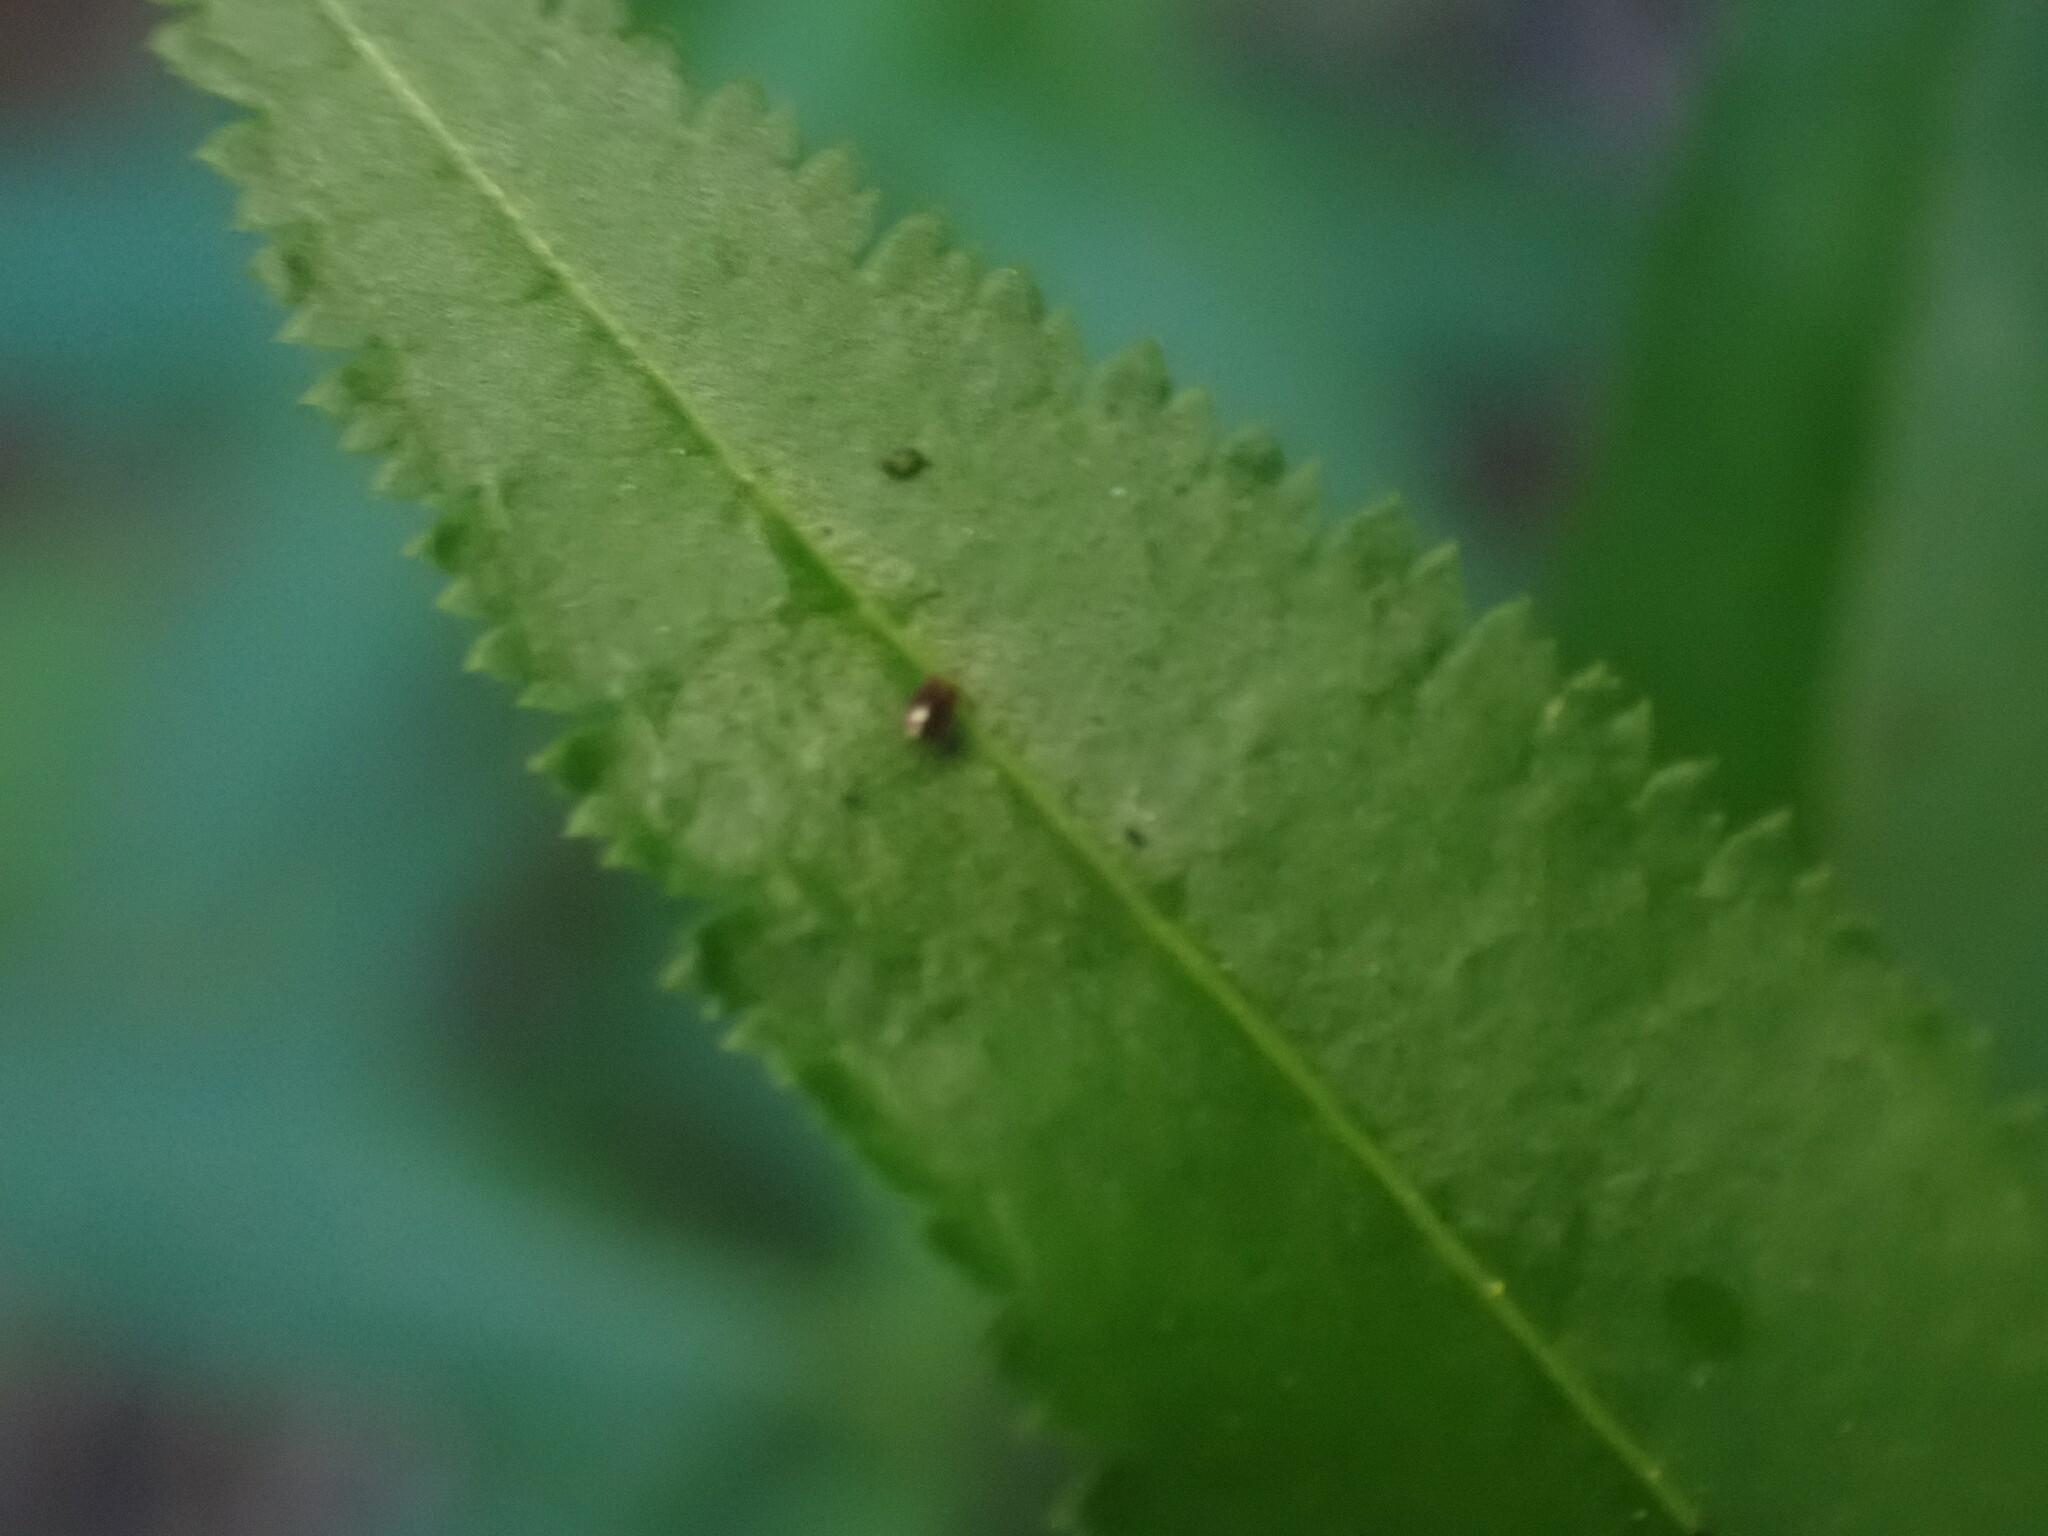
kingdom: Plantae
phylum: Tracheophyta
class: Magnoliopsida
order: Lamiales
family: Orobanchaceae
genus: Pedicularis
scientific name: Pedicularis racemosa
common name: Leafy lousewort
